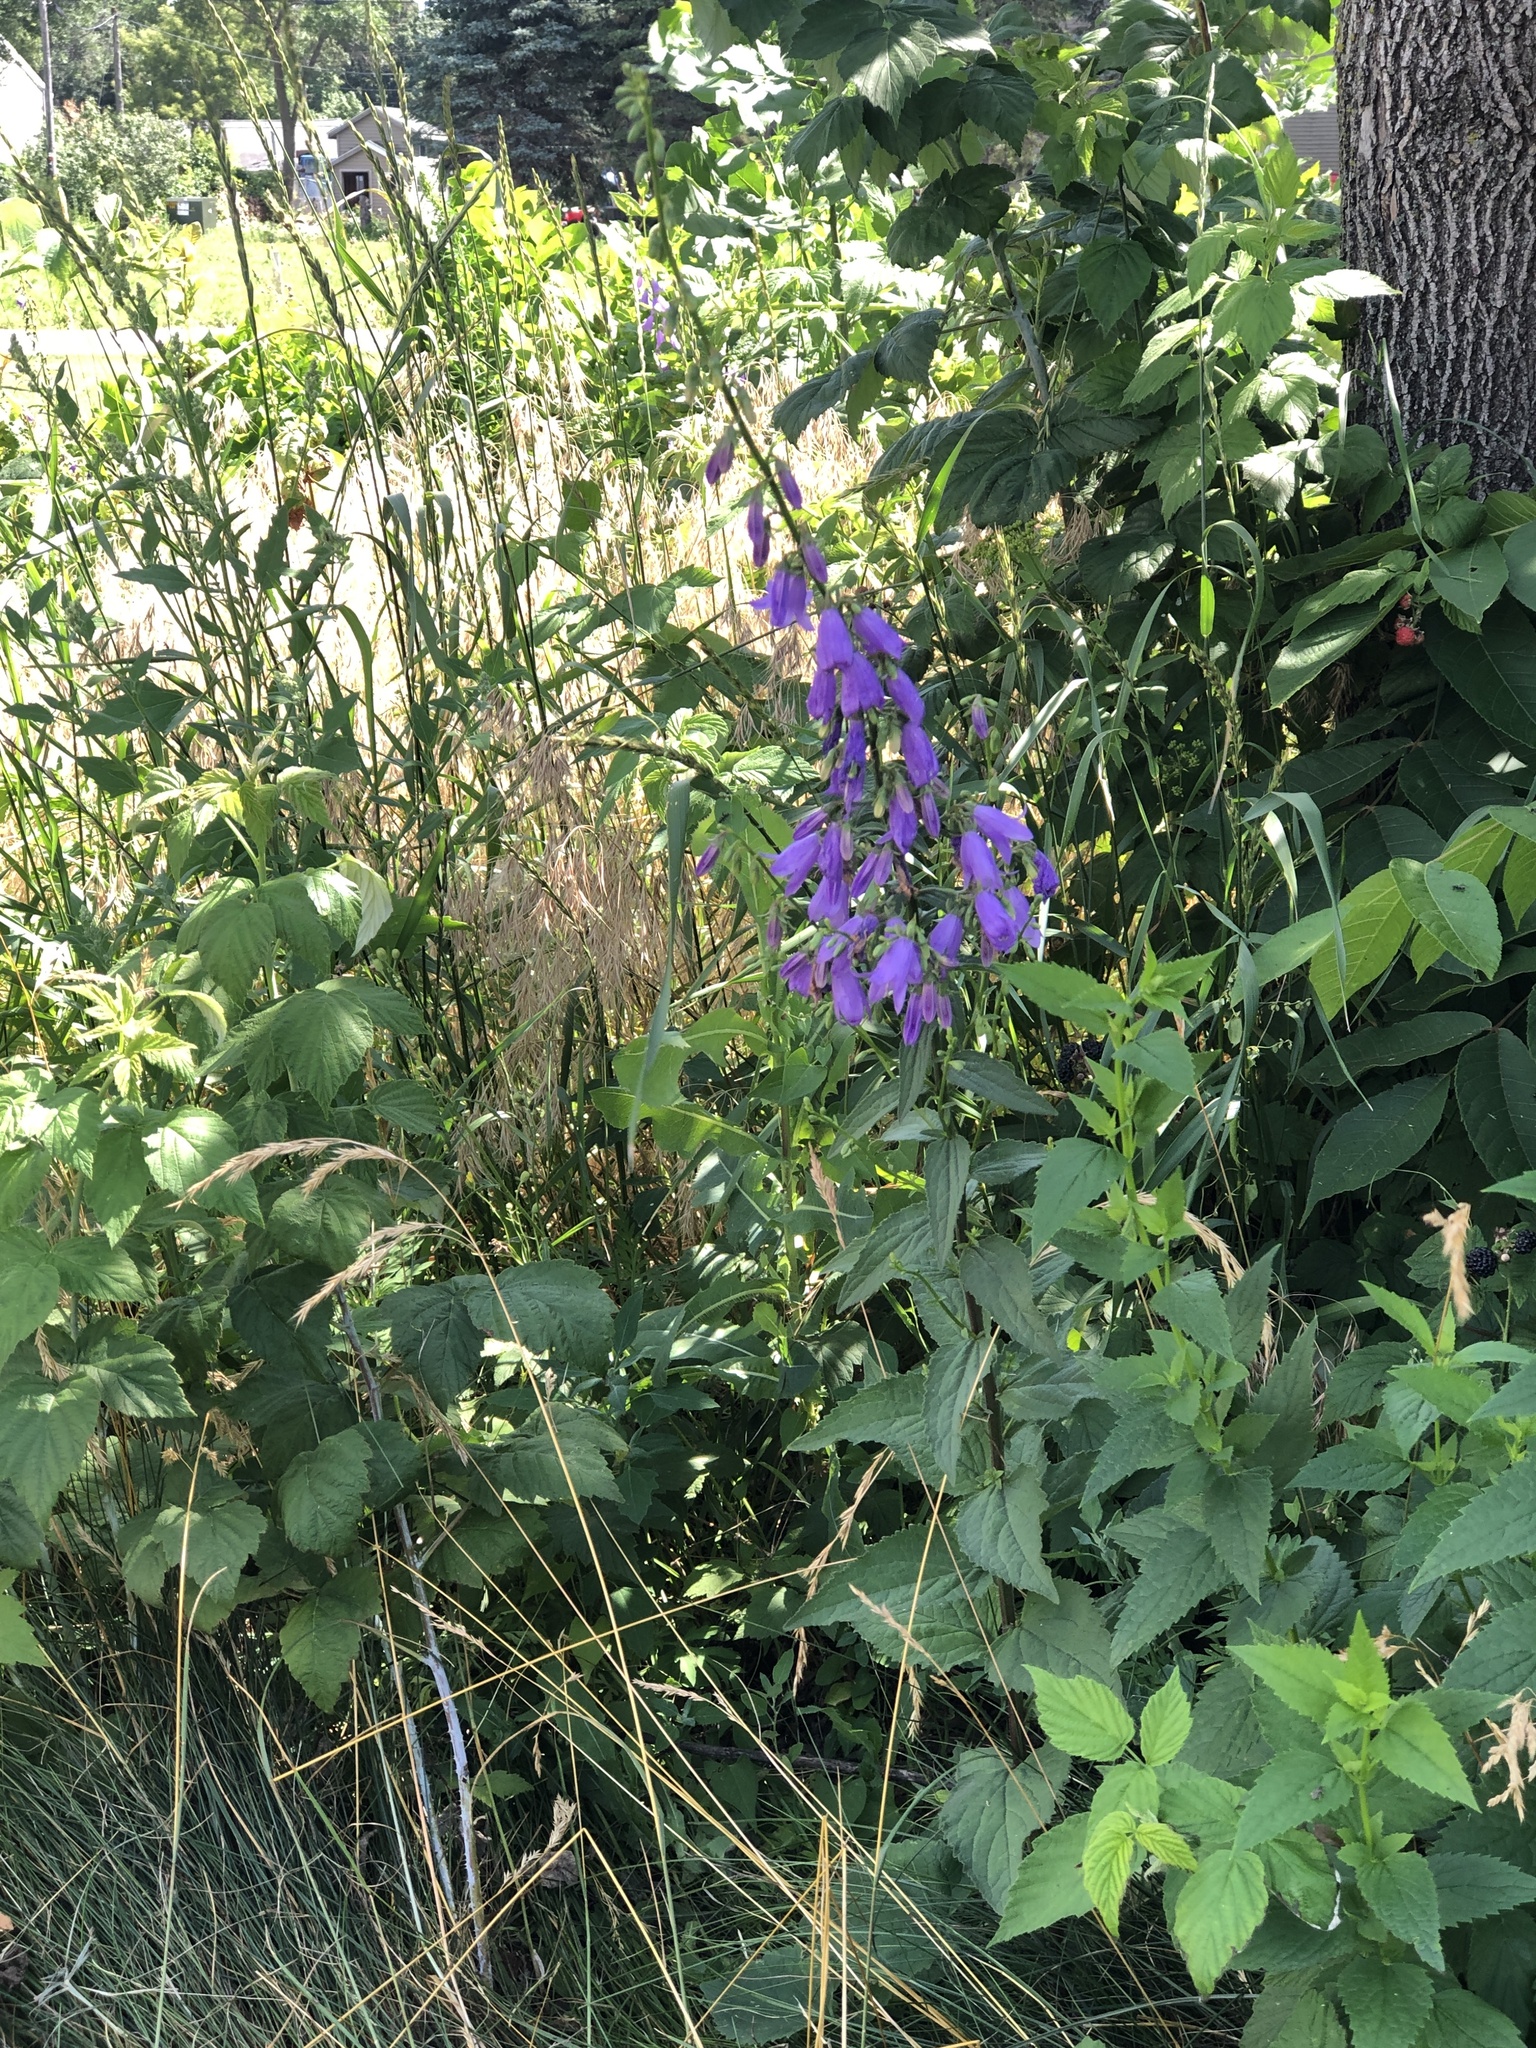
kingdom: Plantae
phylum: Tracheophyta
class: Magnoliopsida
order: Asterales
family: Campanulaceae
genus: Campanula
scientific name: Campanula rapunculoides
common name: Creeping bellflower
